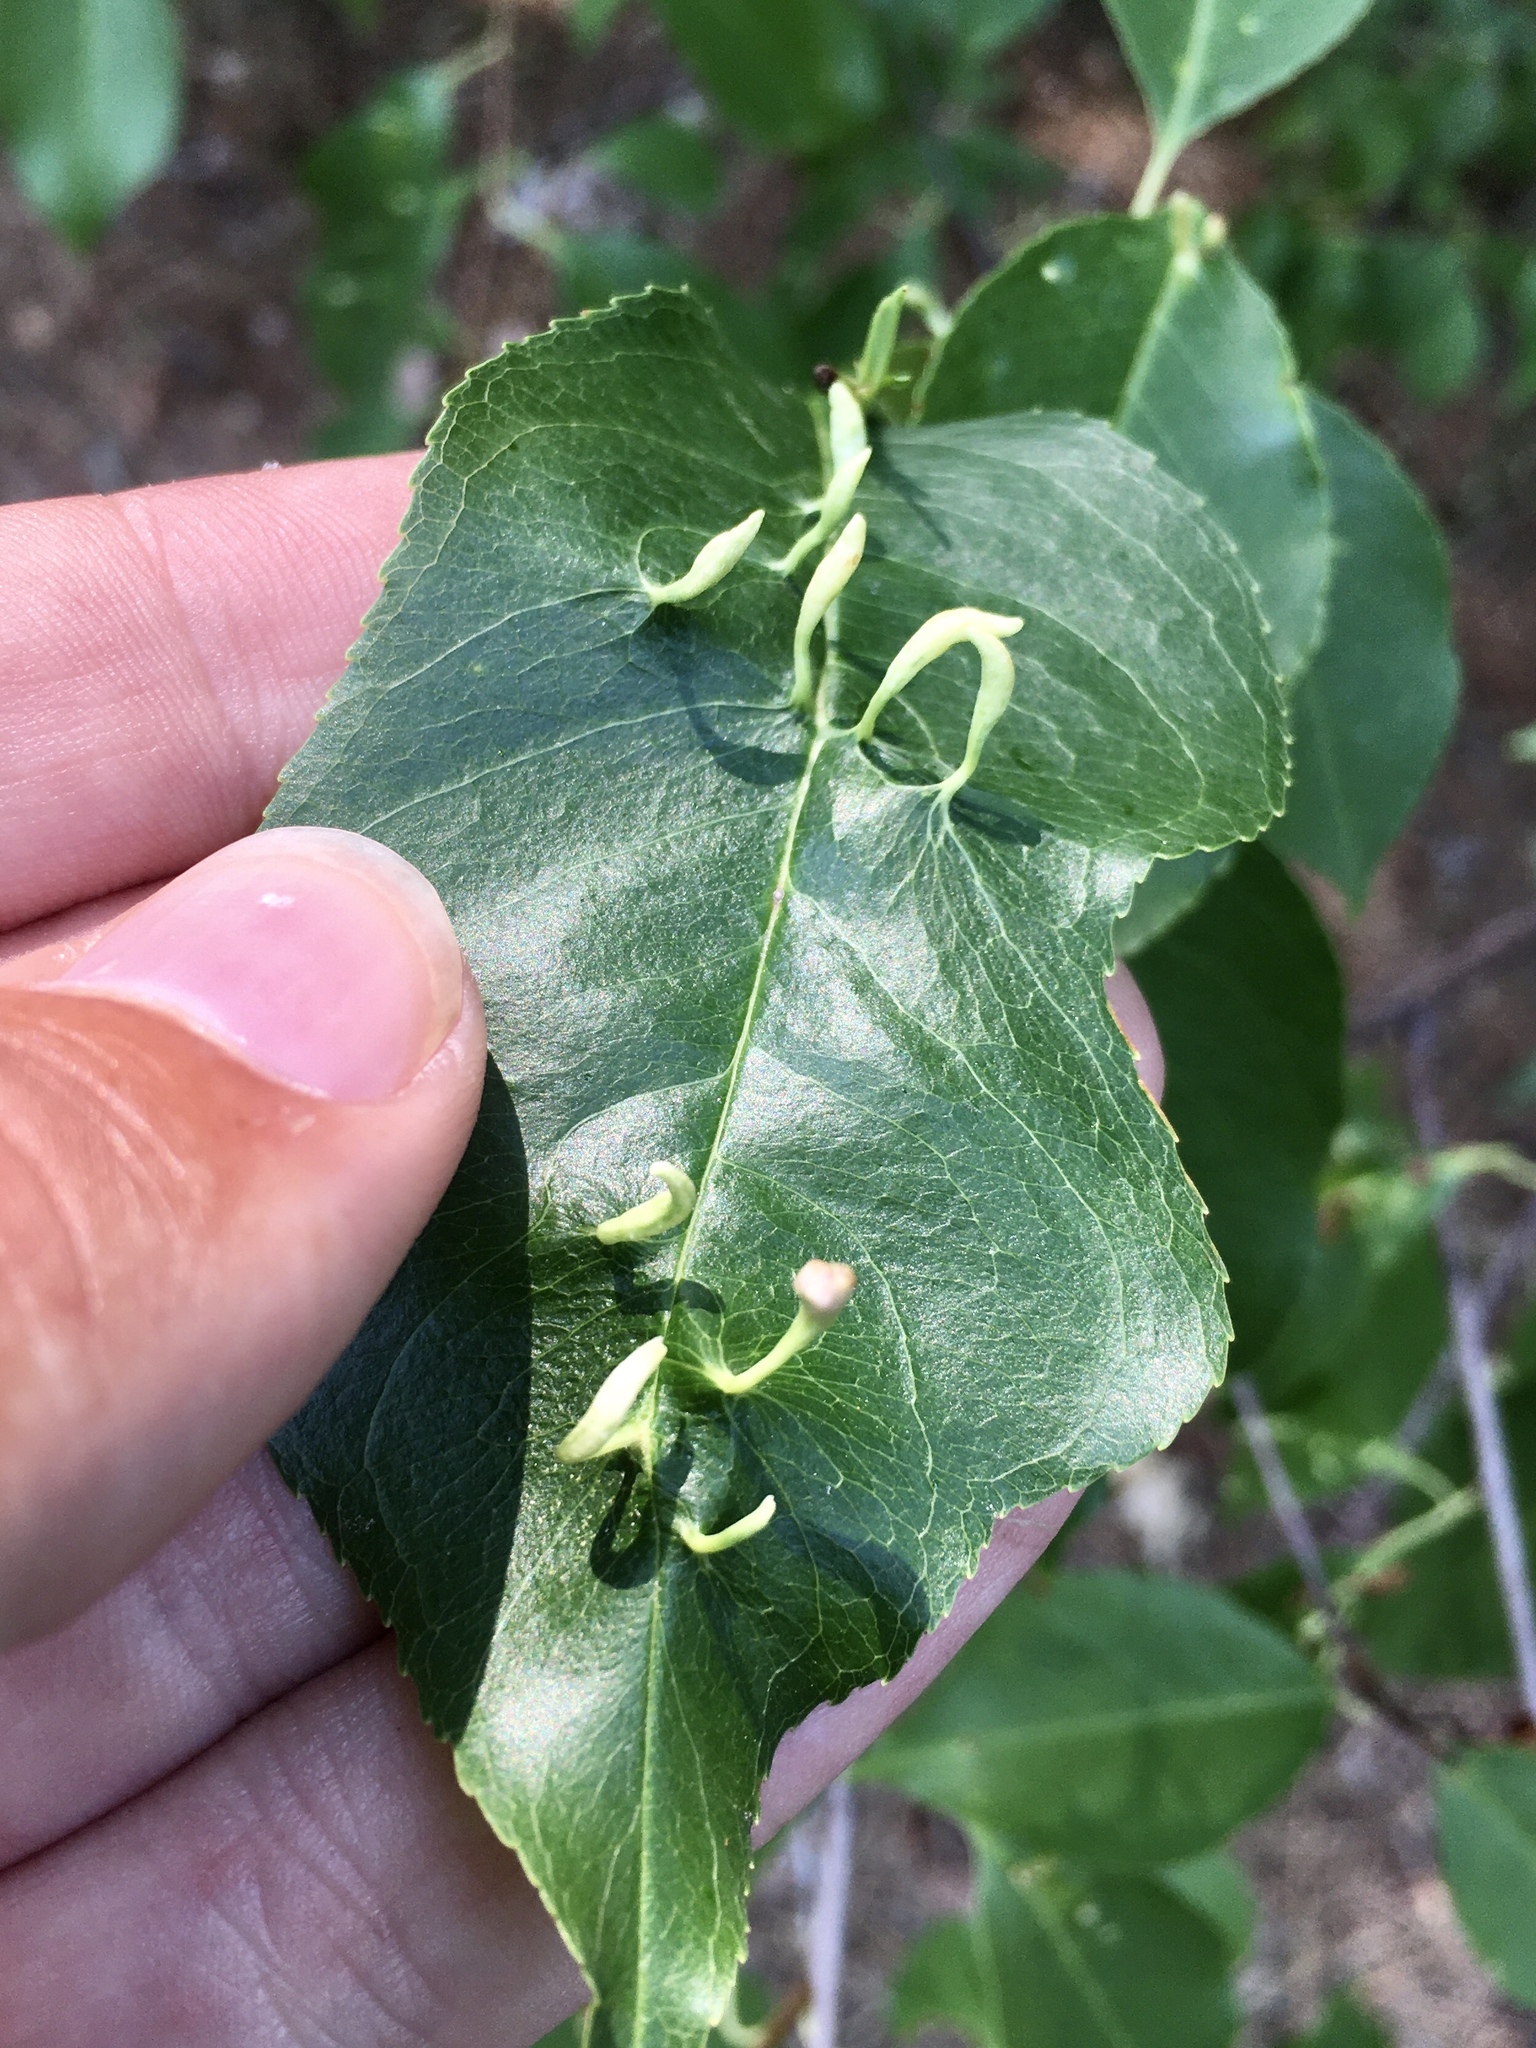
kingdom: Animalia
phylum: Arthropoda
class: Arachnida
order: Trombidiformes
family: Eriophyidae
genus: Eriophyes
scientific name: Eriophyes
